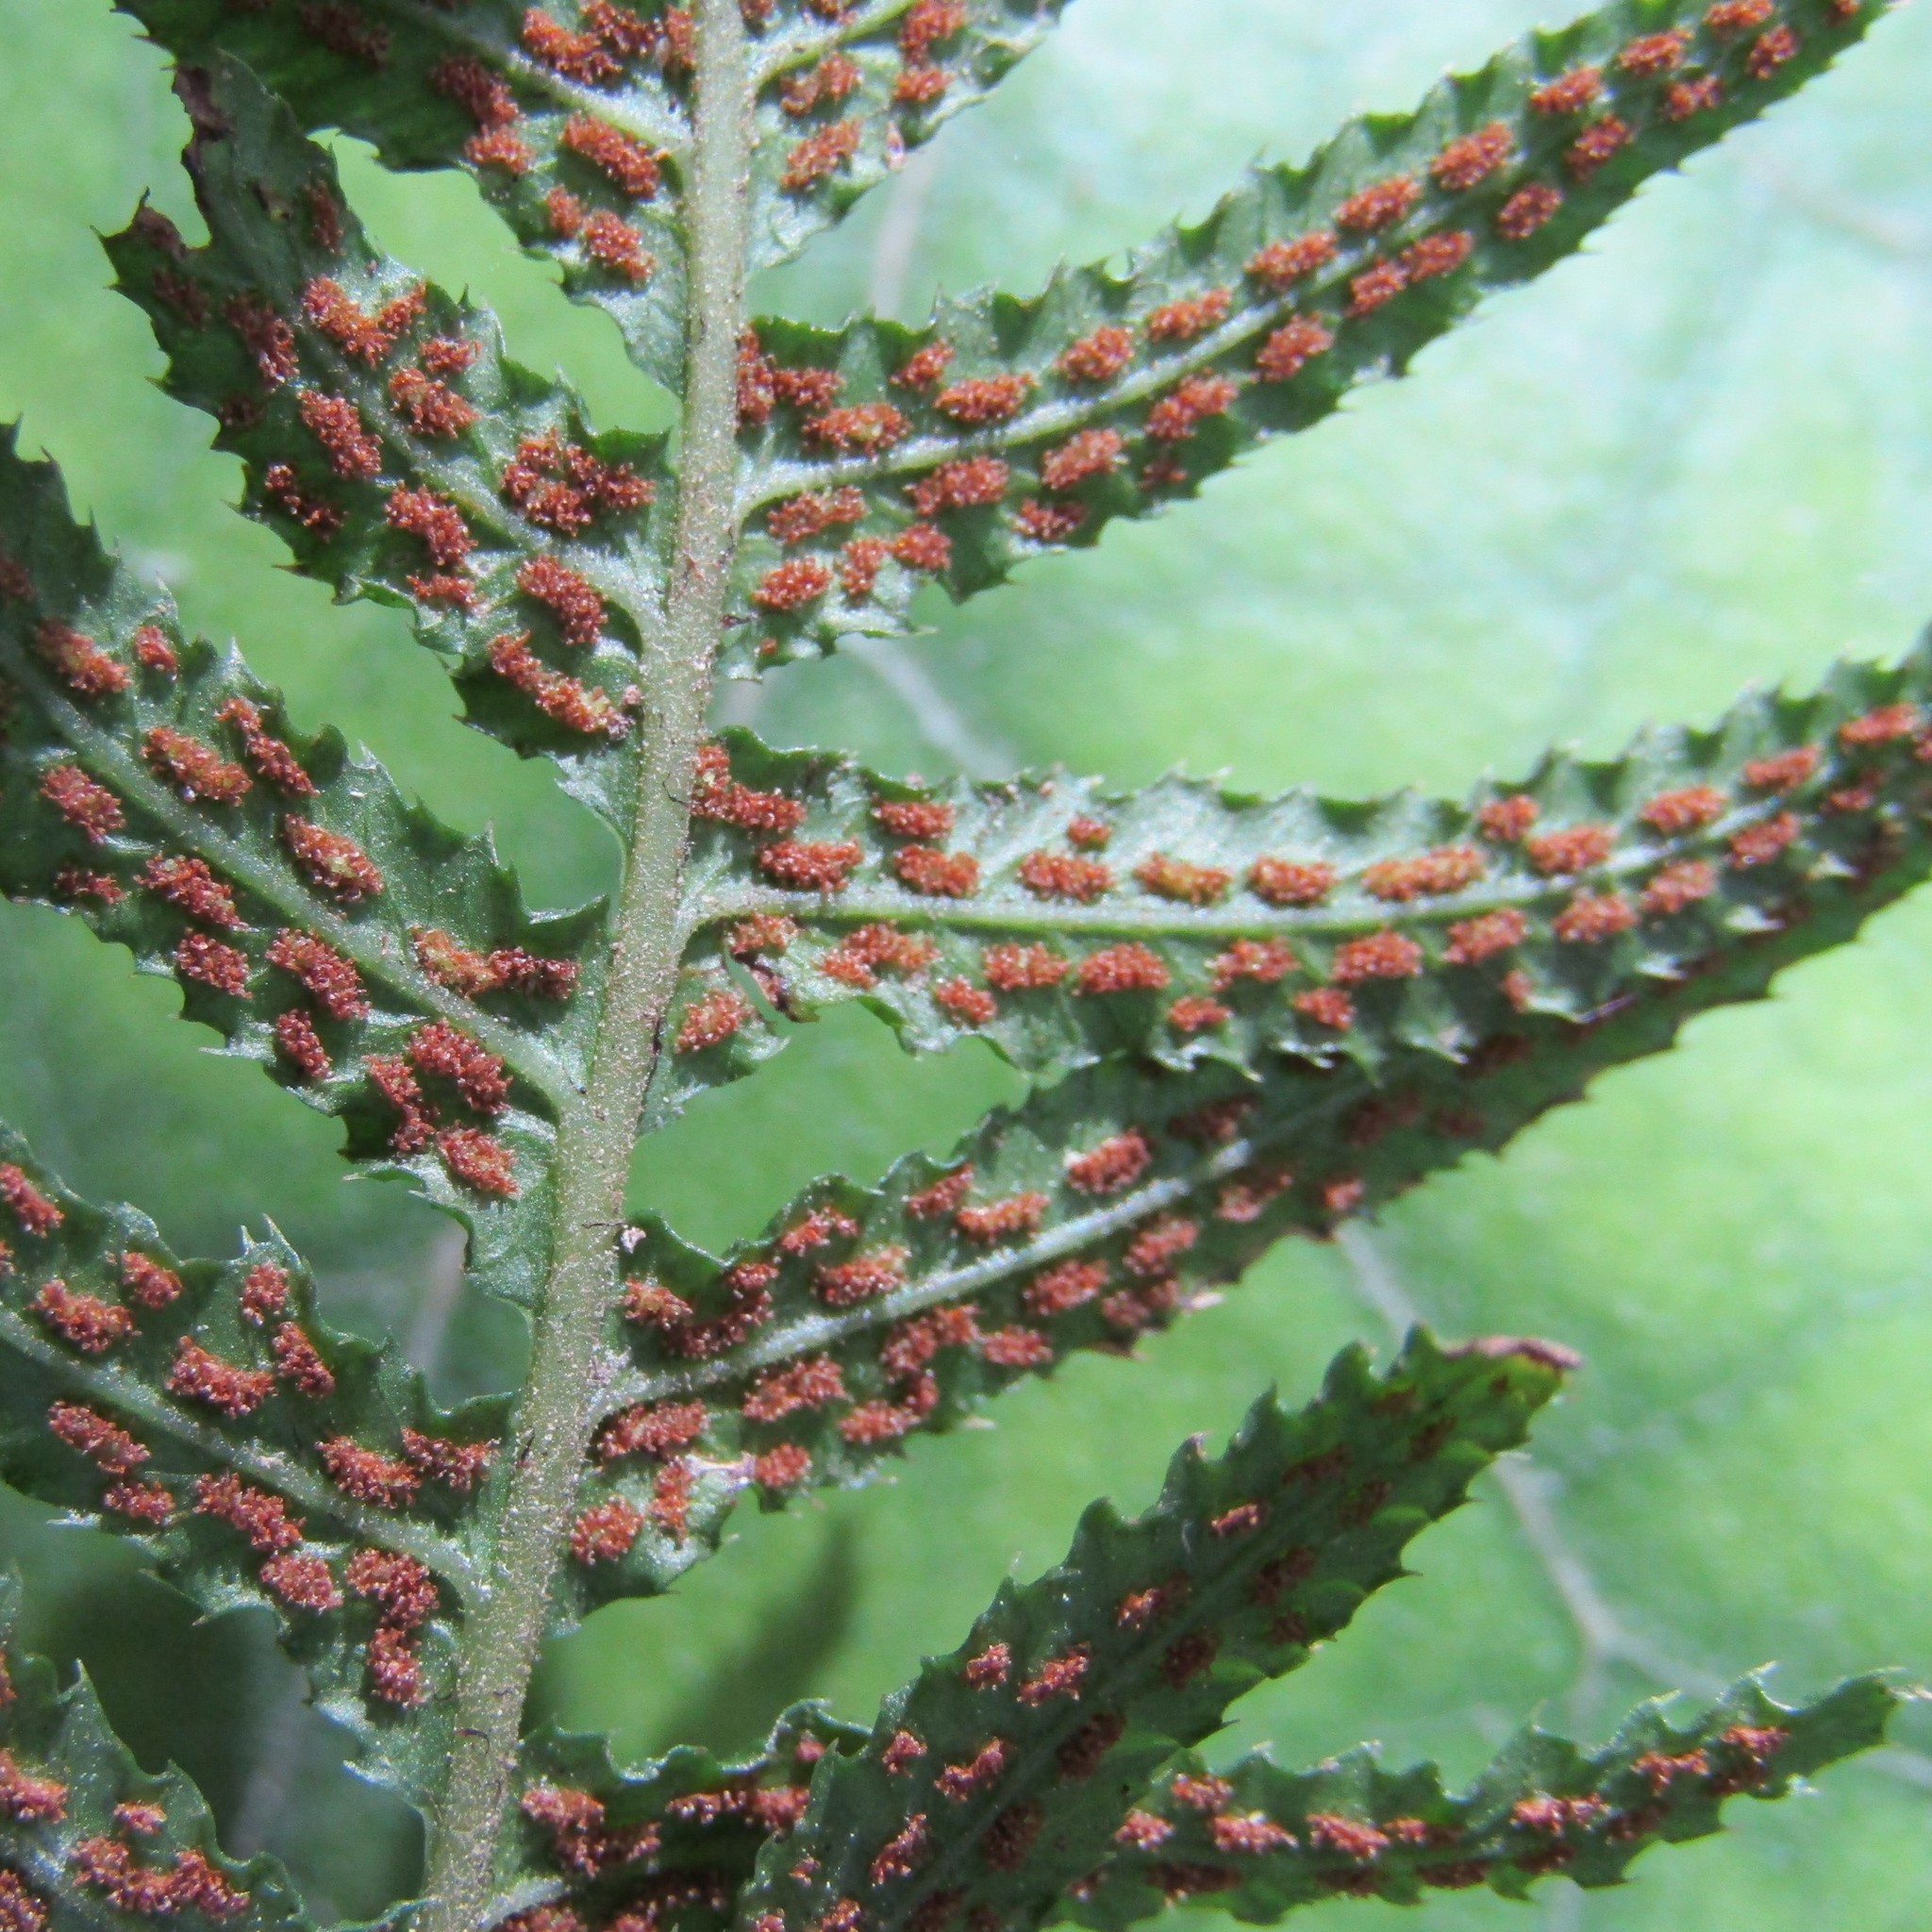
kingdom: Plantae
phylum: Tracheophyta
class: Polypodiopsida
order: Polypodiales
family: Blechnaceae
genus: Doodia
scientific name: Doodia australis
